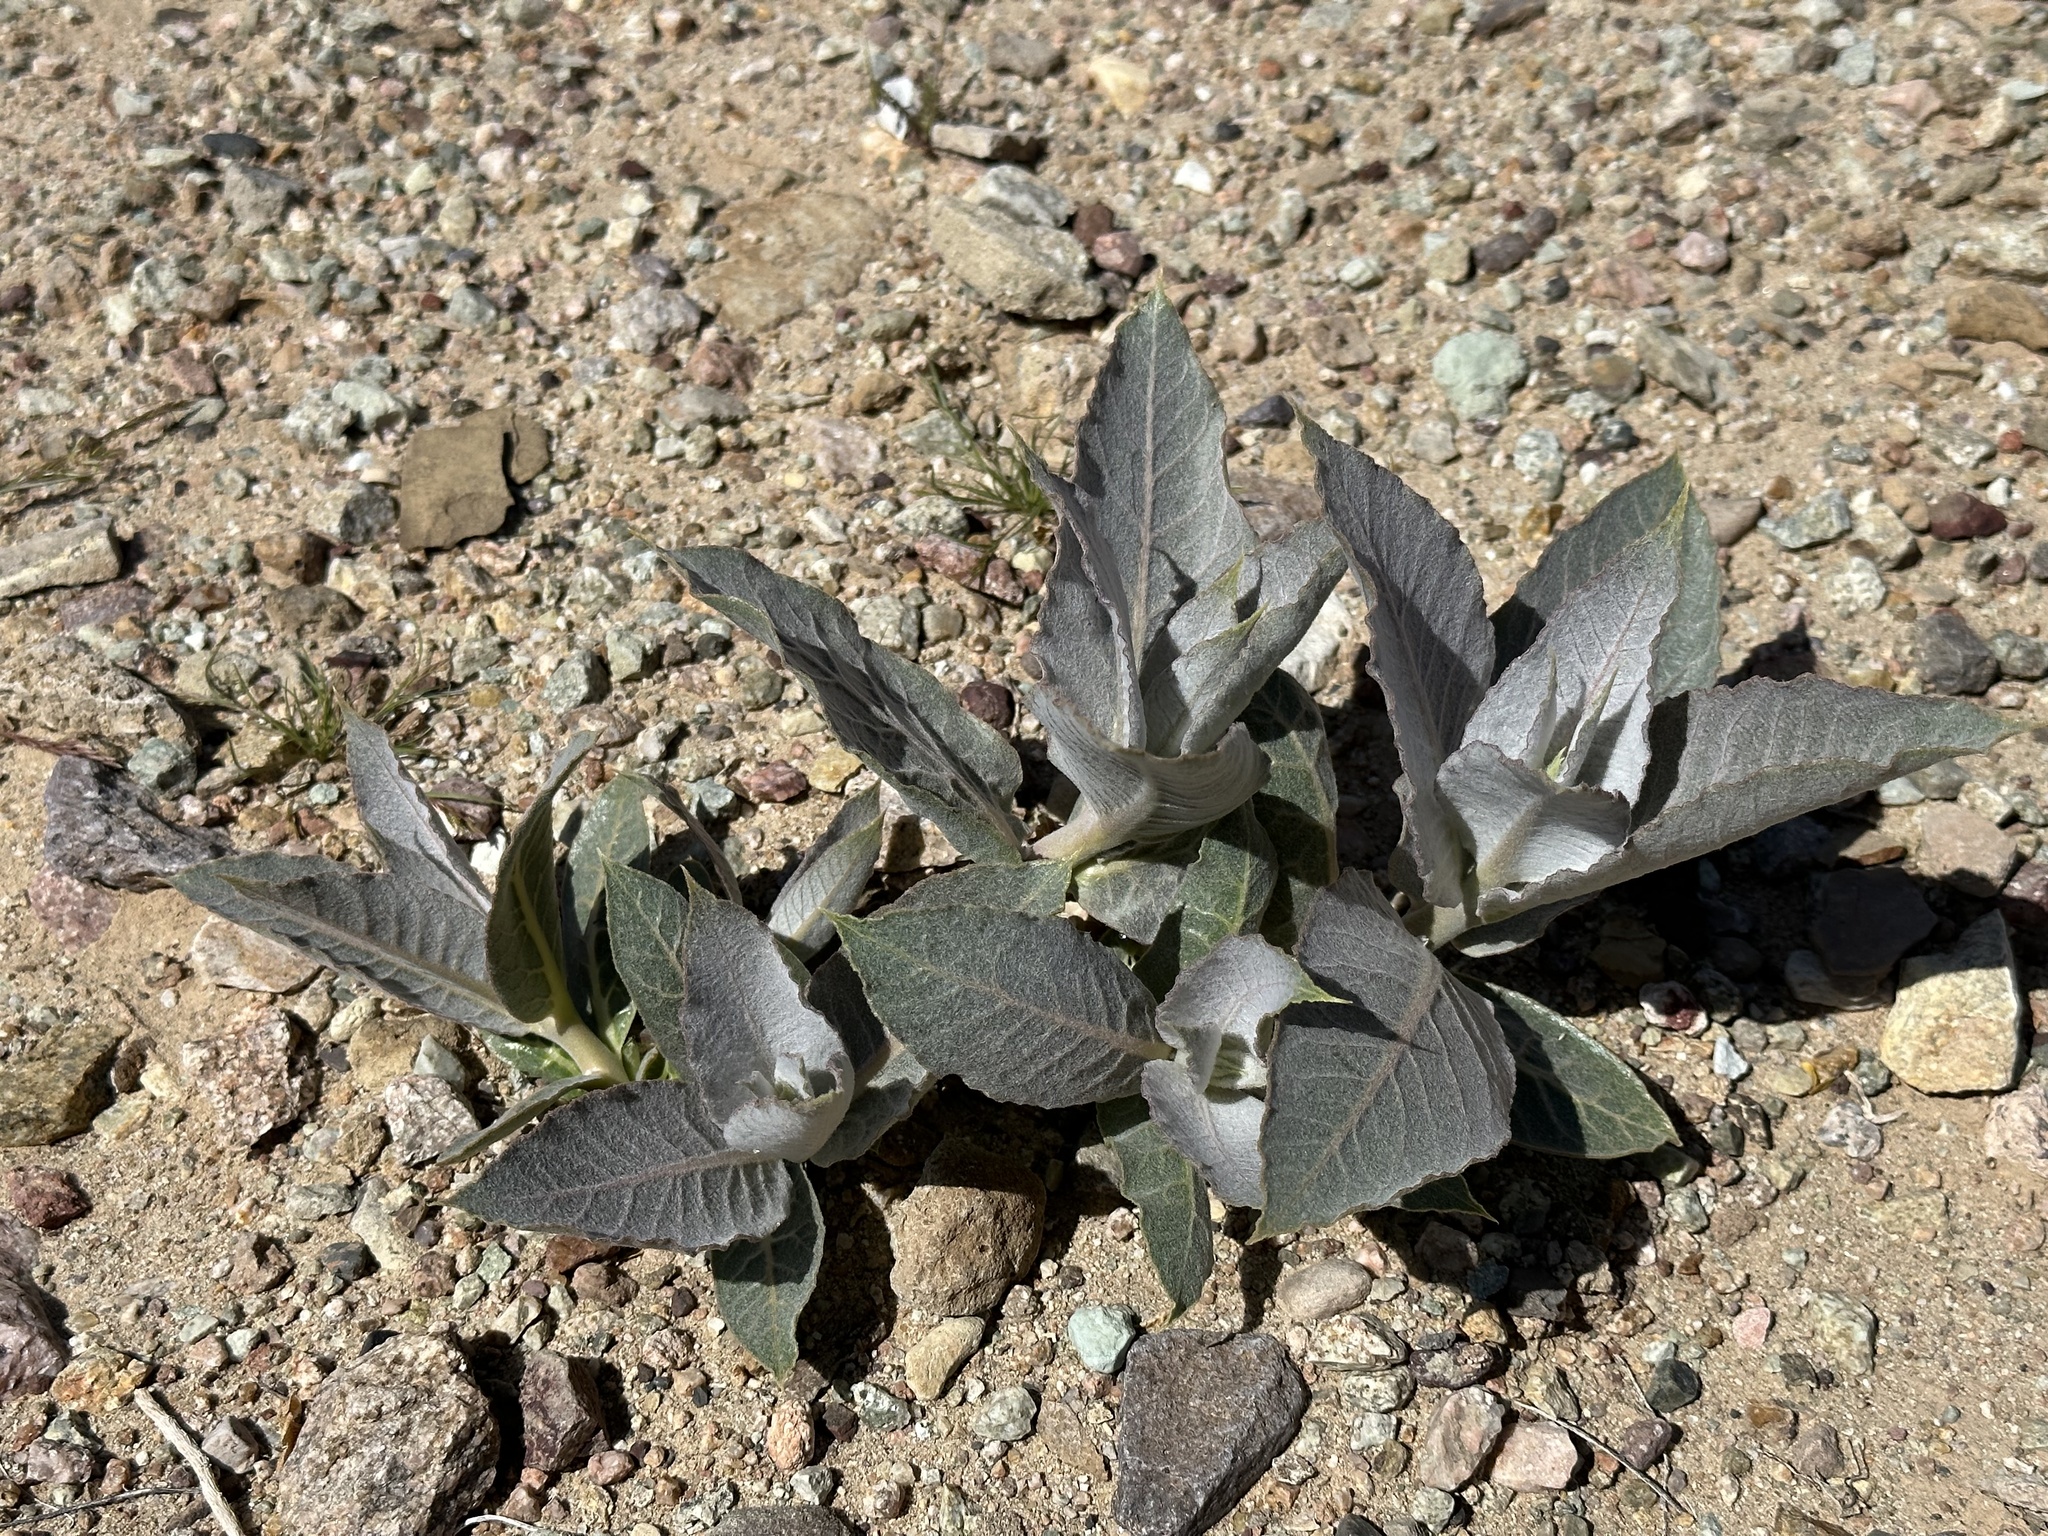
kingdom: Plantae
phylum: Tracheophyta
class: Magnoliopsida
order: Gentianales
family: Apocynaceae
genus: Asclepias
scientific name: Asclepias erosa
